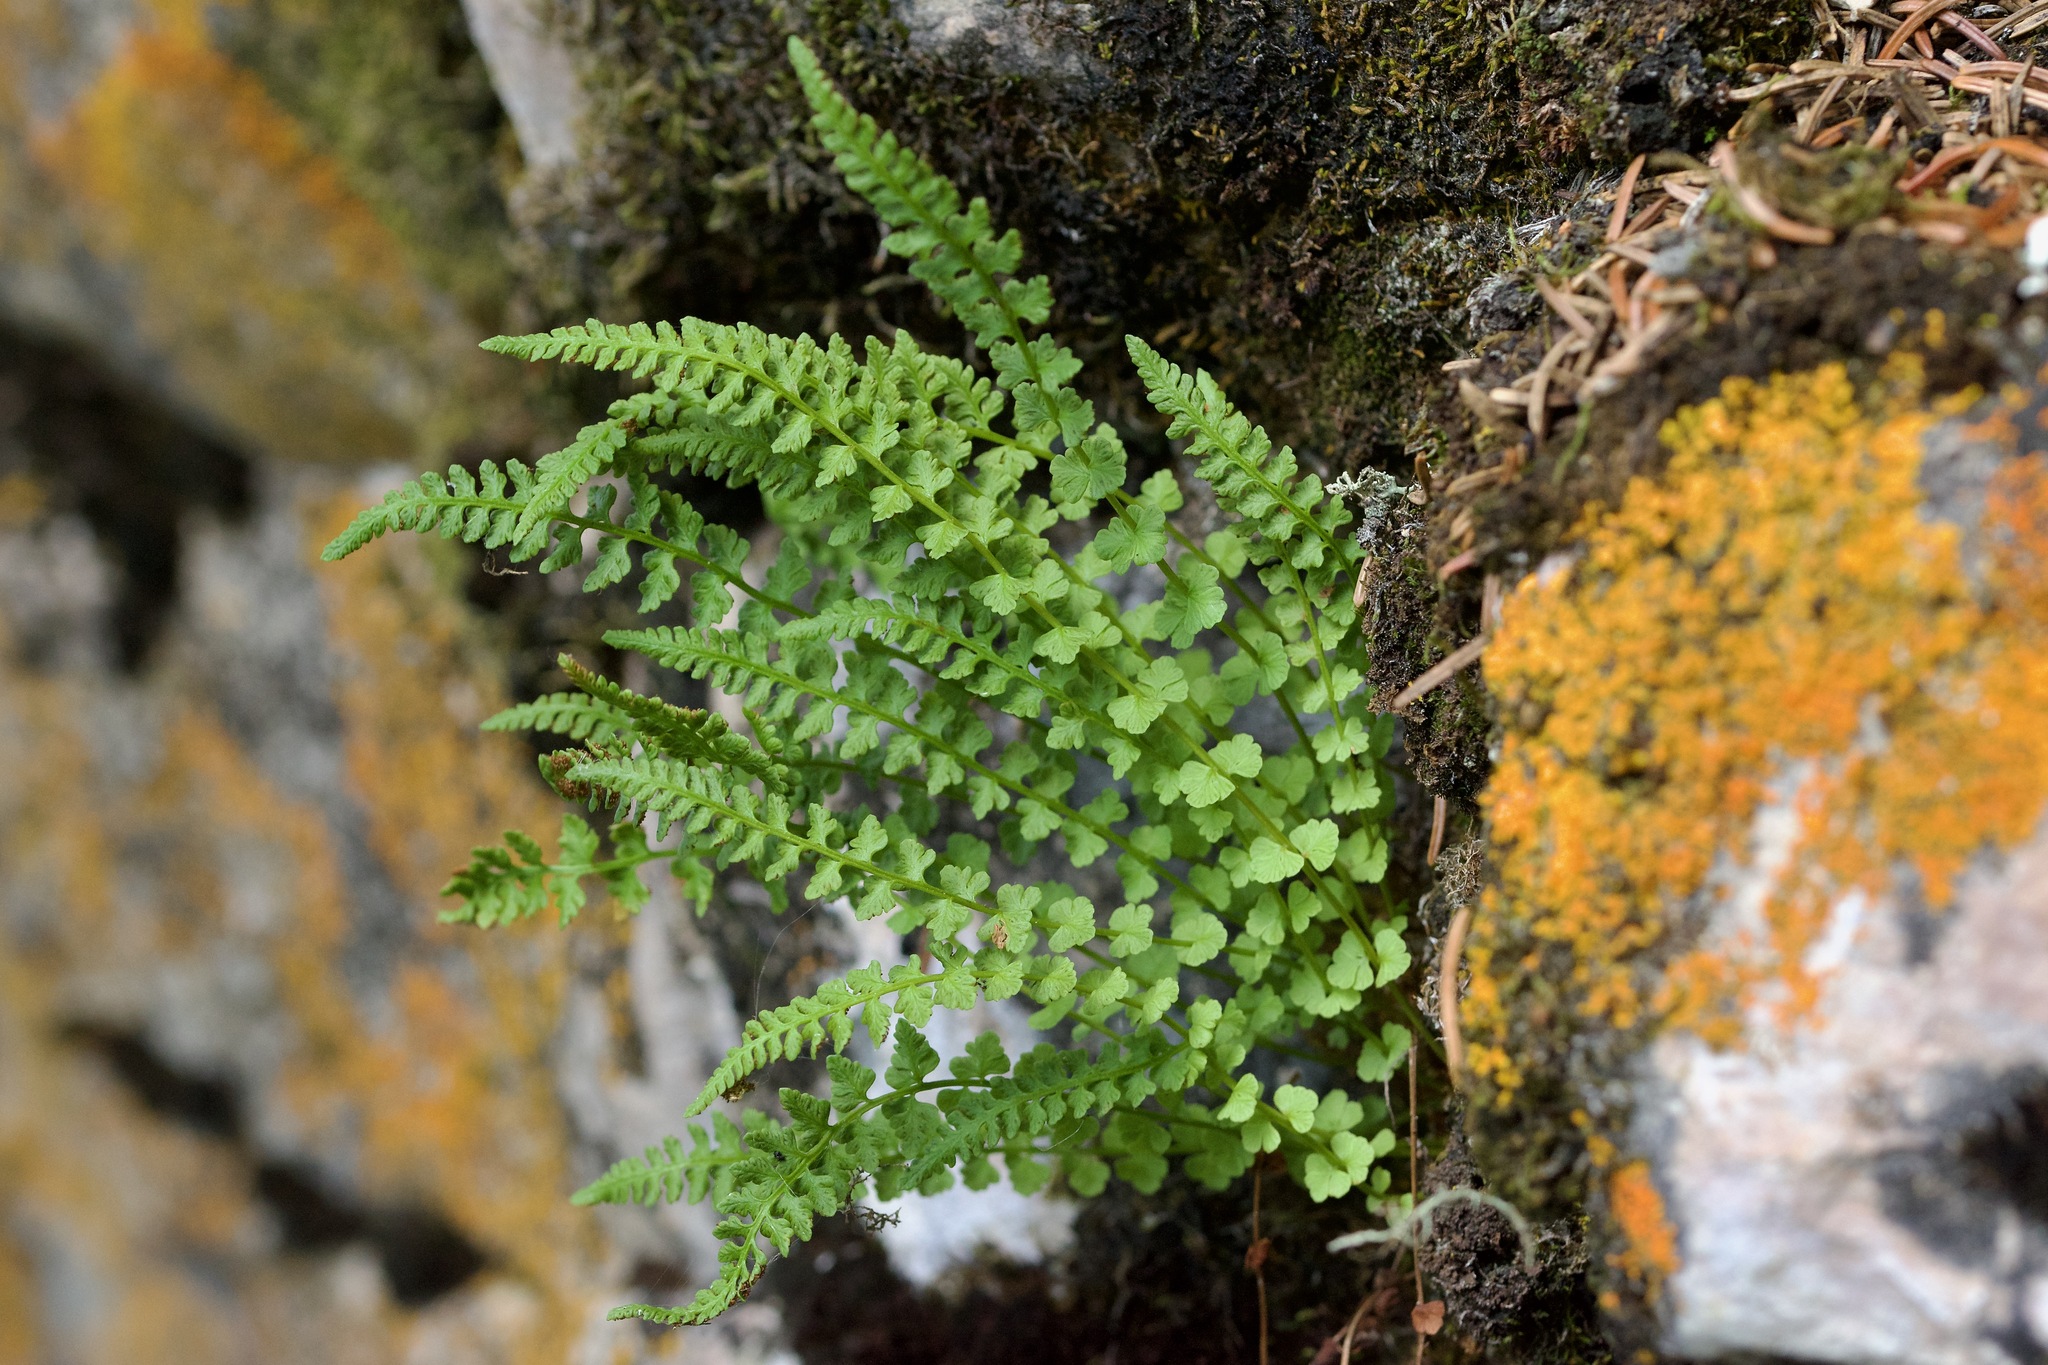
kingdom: Plantae
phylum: Tracheophyta
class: Polypodiopsida
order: Polypodiales
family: Woodsiaceae
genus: Woodsia
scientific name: Woodsia glabella
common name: Smooth woodsia
